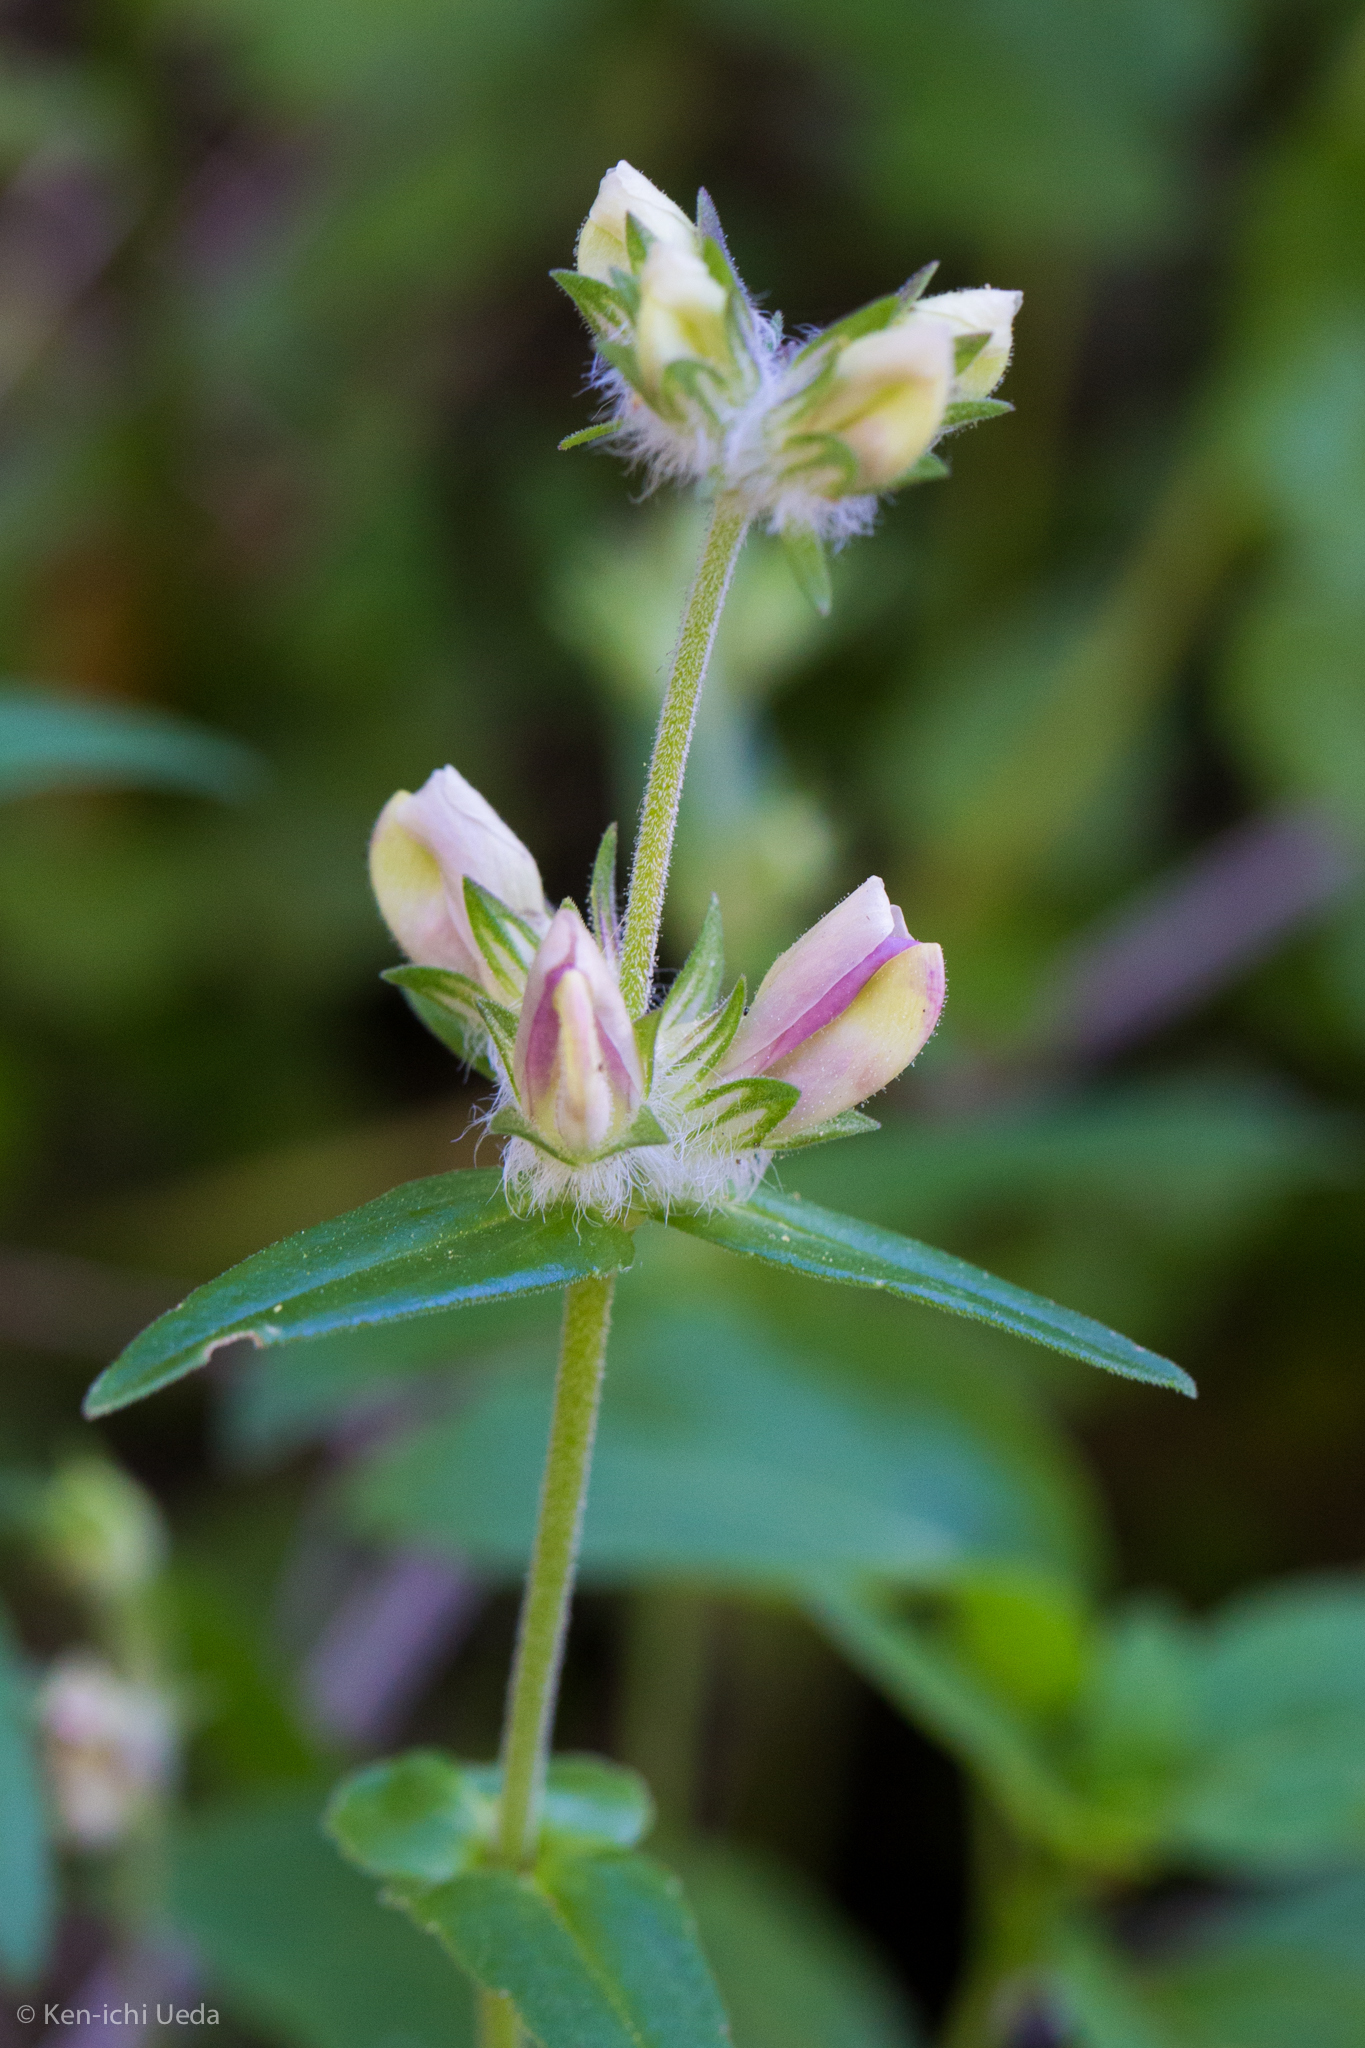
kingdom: Plantae
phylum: Tracheophyta
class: Magnoliopsida
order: Lamiales
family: Plantaginaceae
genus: Collinsia
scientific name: Collinsia heterophylla
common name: Chinese-houses
